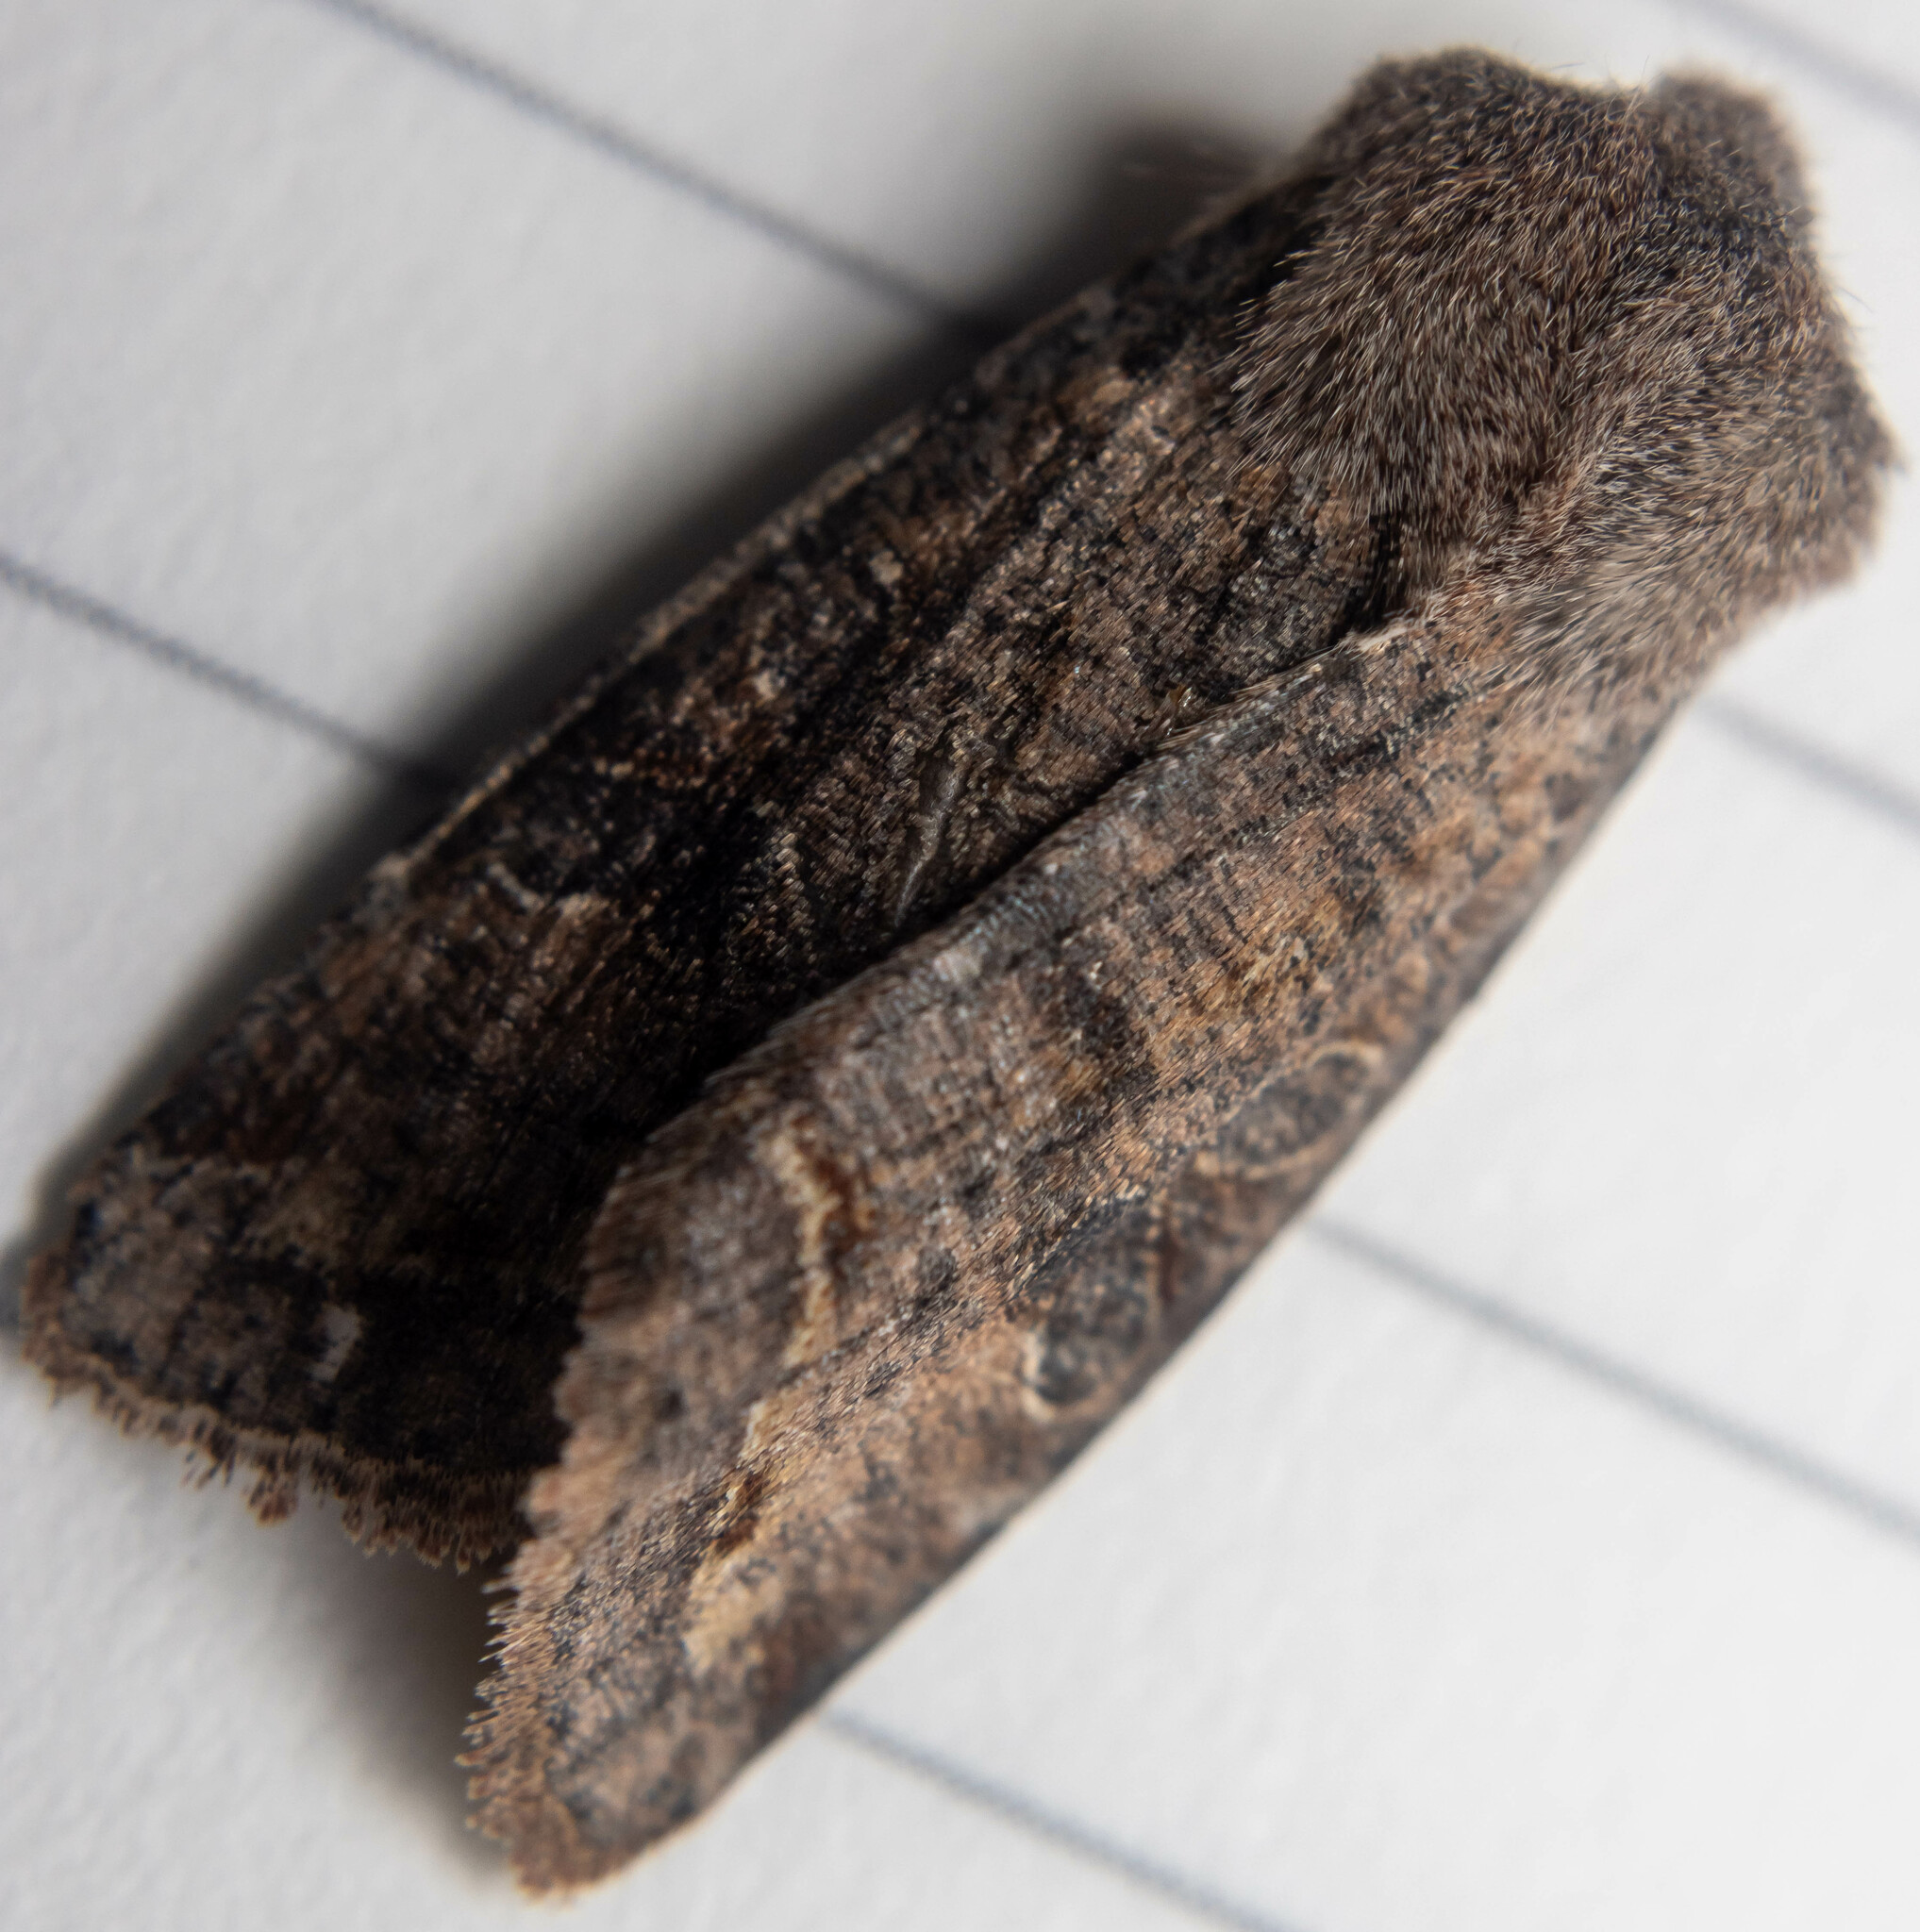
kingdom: Animalia
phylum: Arthropoda
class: Insecta
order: Lepidoptera
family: Noctuidae
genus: Orthosia
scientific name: Orthosia incerta
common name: Clouded drab
